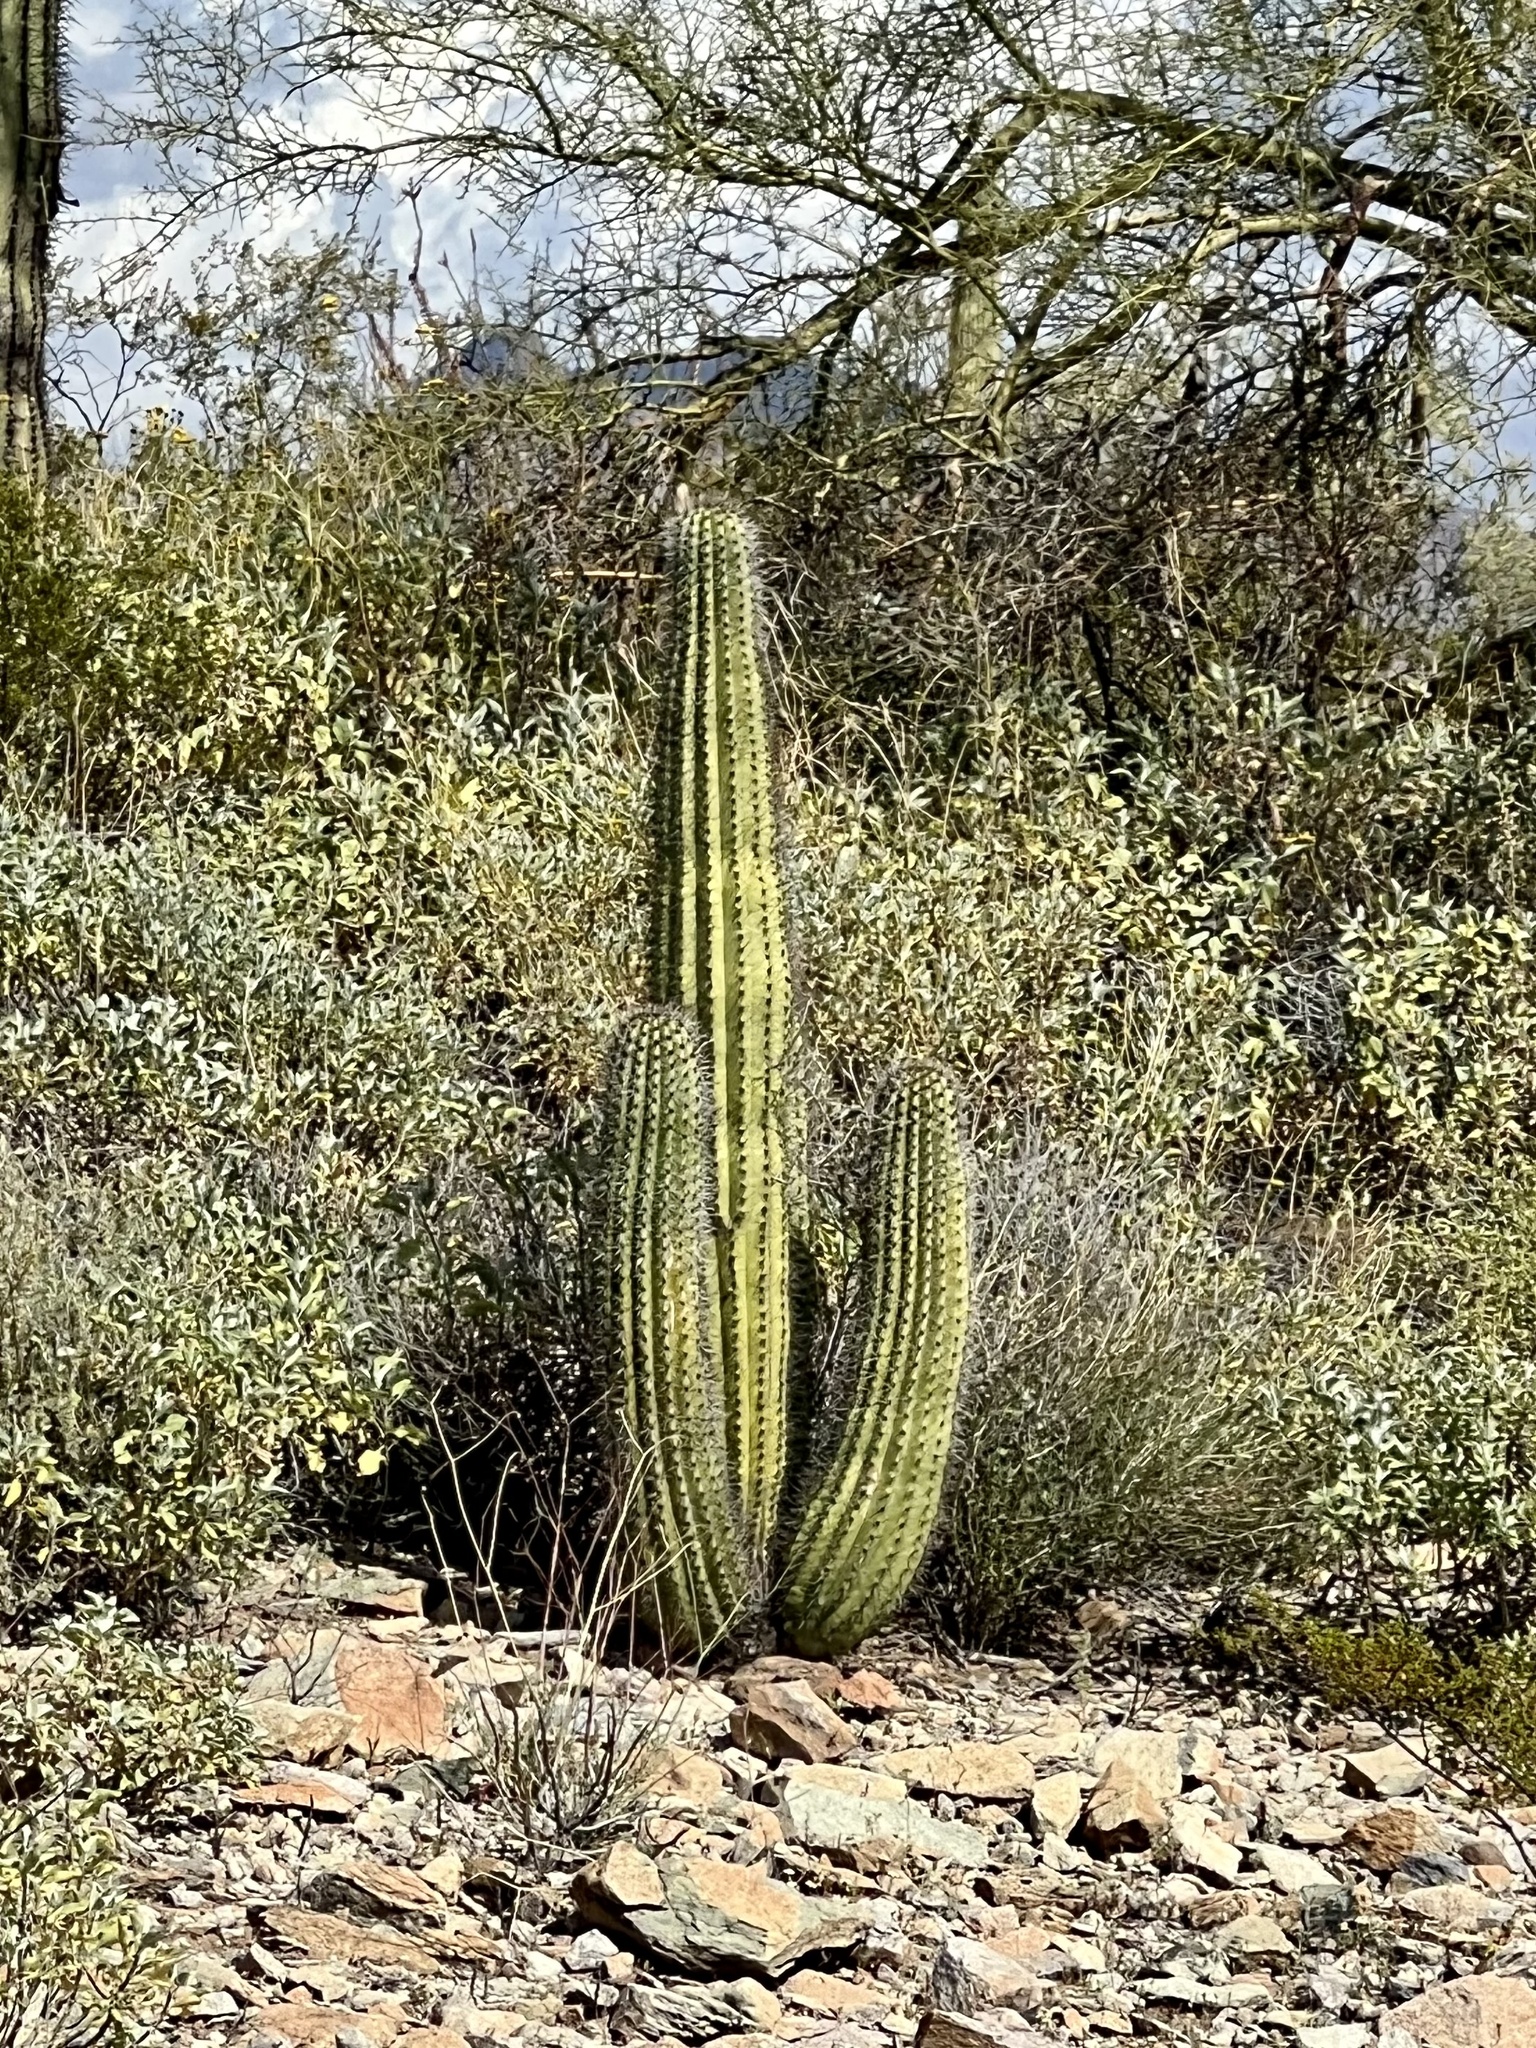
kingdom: Plantae
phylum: Tracheophyta
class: Magnoliopsida
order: Caryophyllales
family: Cactaceae
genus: Stenocereus
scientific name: Stenocereus thurberi
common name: Organ pipe cactus
